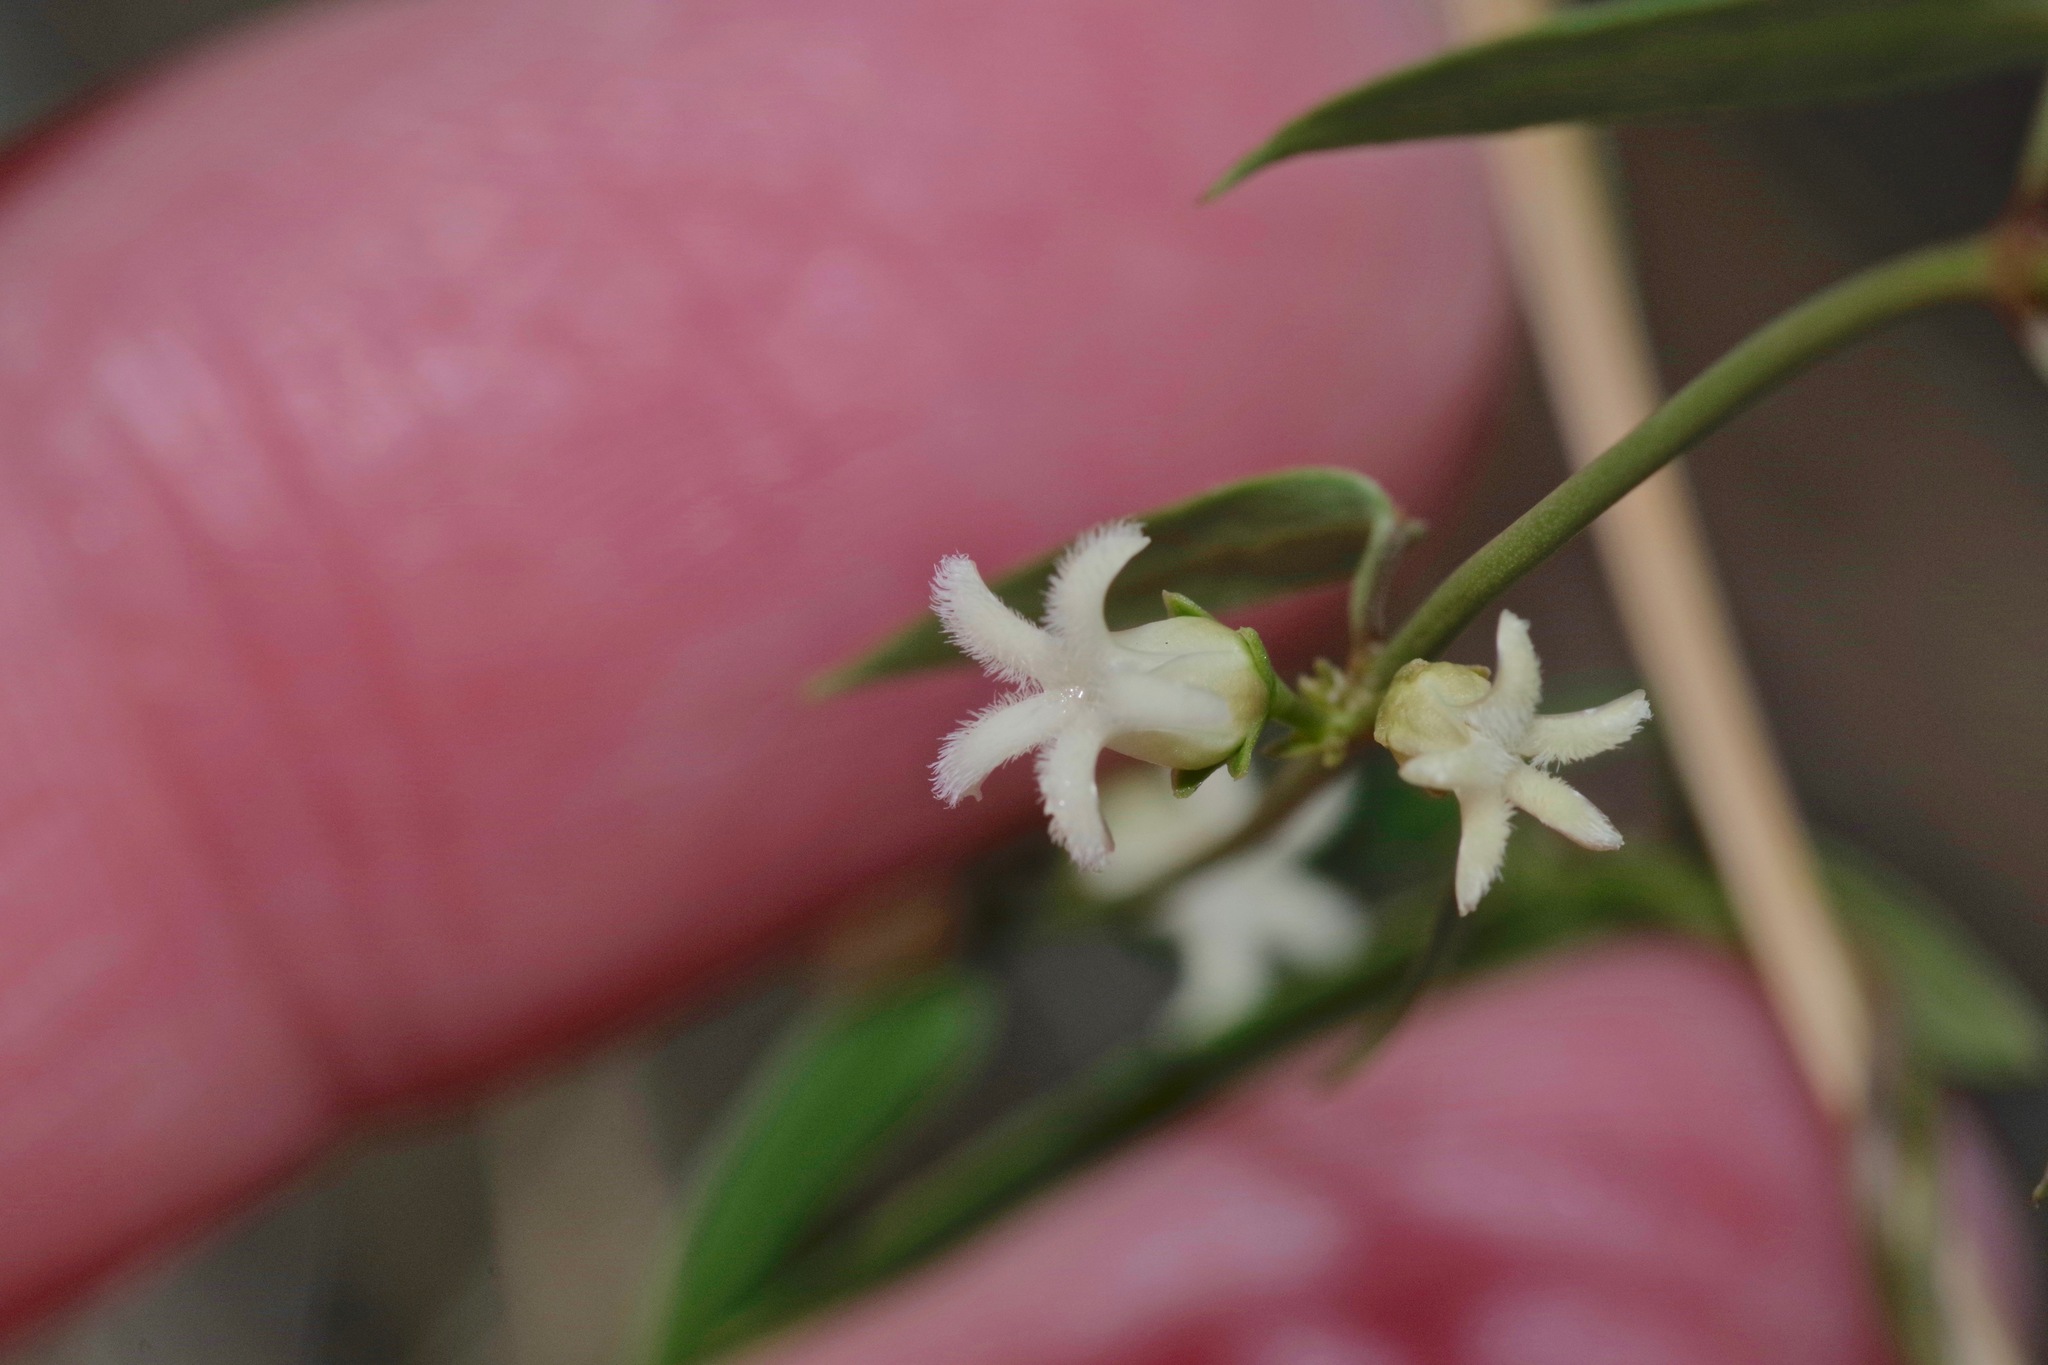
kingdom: Plantae
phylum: Tracheophyta
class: Magnoliopsida
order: Gentianales
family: Apocynaceae
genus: Metastelma
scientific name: Metastelma barbigerum
